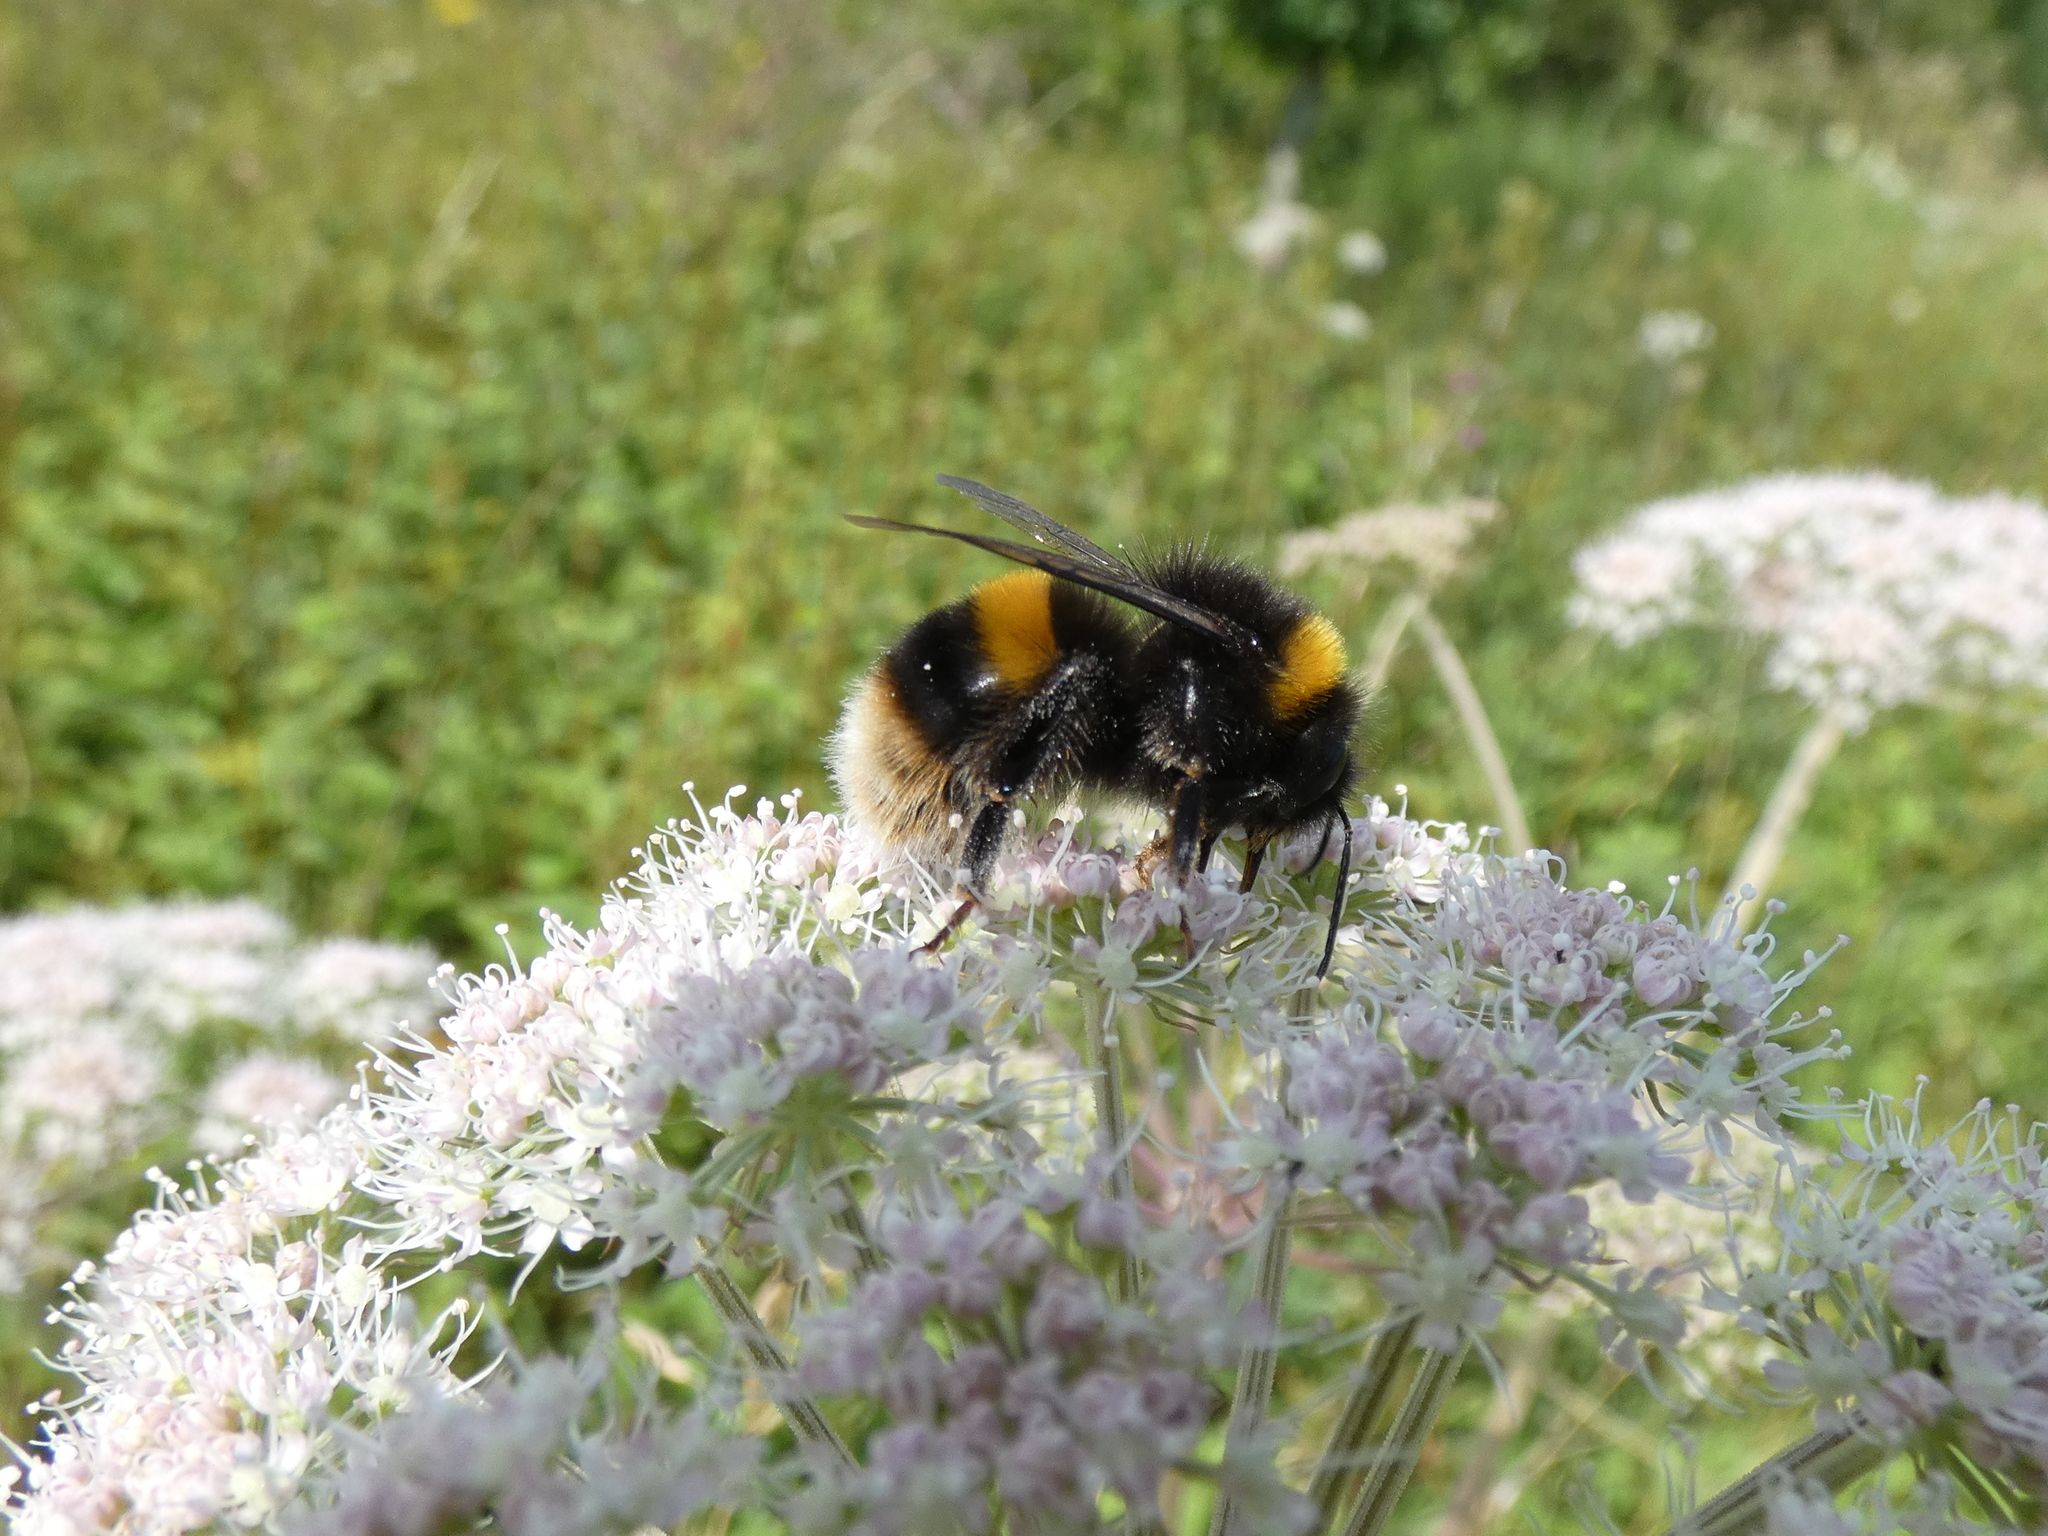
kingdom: Animalia
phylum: Arthropoda
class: Insecta
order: Hymenoptera
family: Apidae
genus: Bombus
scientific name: Bombus terrestris
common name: Buff-tailed bumblebee
